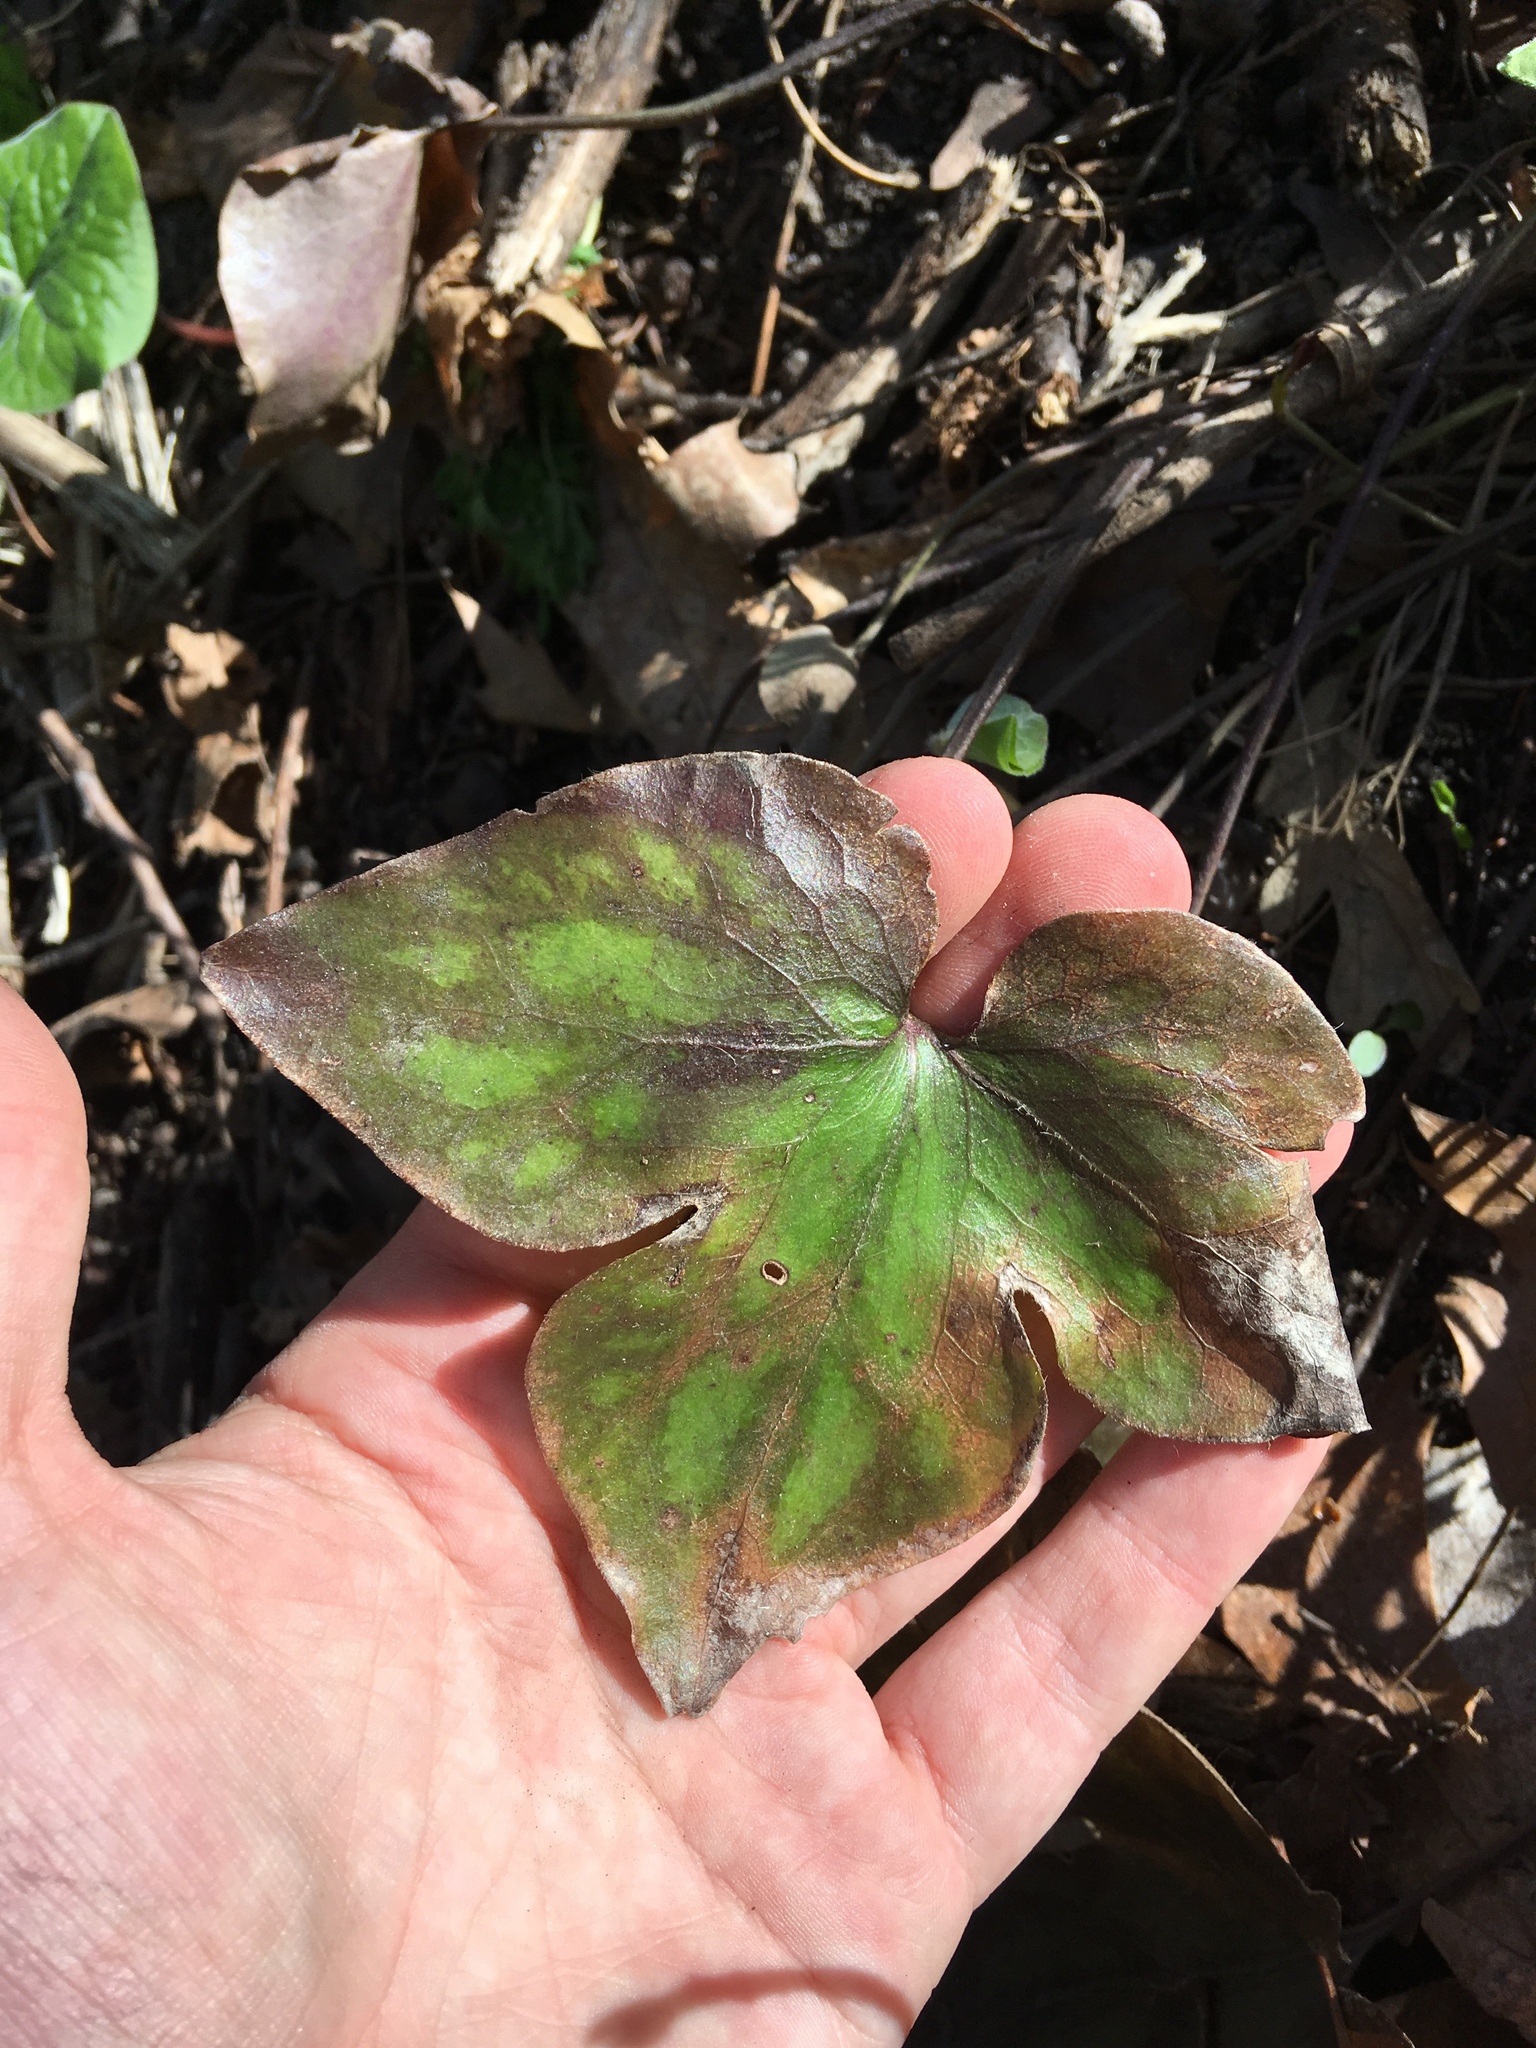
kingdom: Plantae
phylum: Tracheophyta
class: Magnoliopsida
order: Ranunculales
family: Ranunculaceae
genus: Hepatica
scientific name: Hepatica acutiloba
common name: Sharp-lobed hepatica
